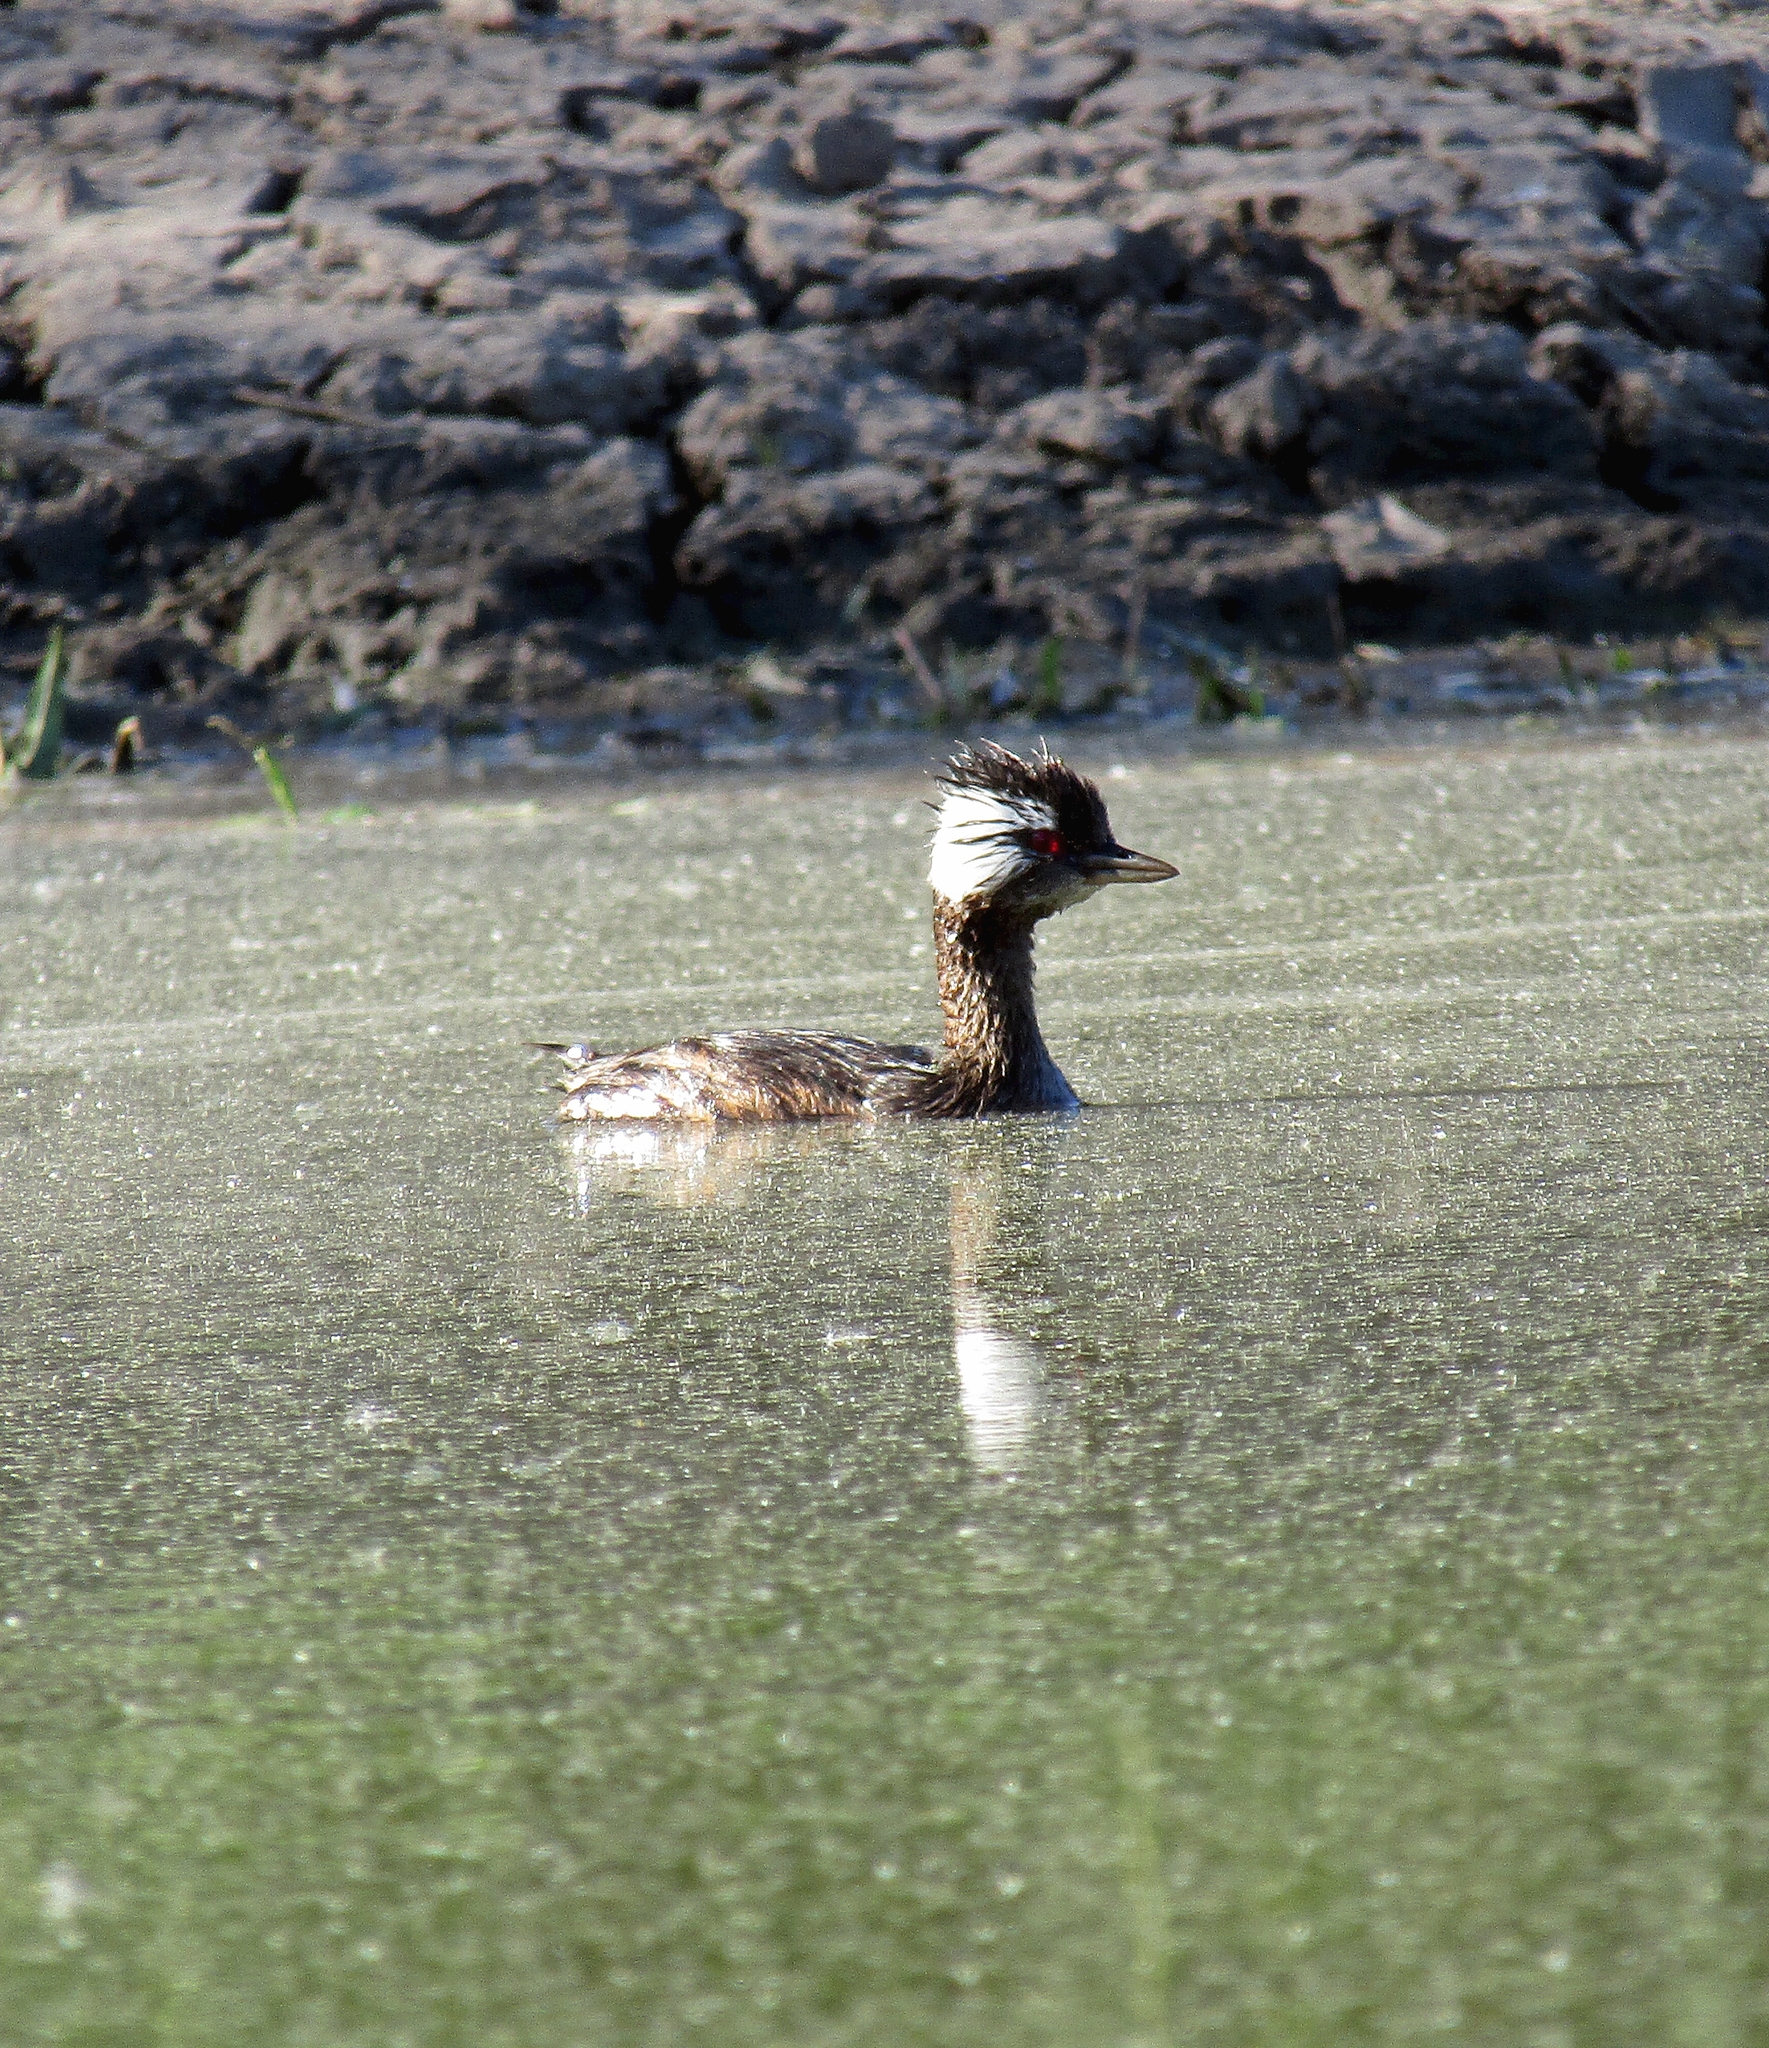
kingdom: Animalia
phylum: Chordata
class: Aves
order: Podicipediformes
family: Podicipedidae
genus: Rollandia
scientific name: Rollandia rolland
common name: White-tufted grebe
